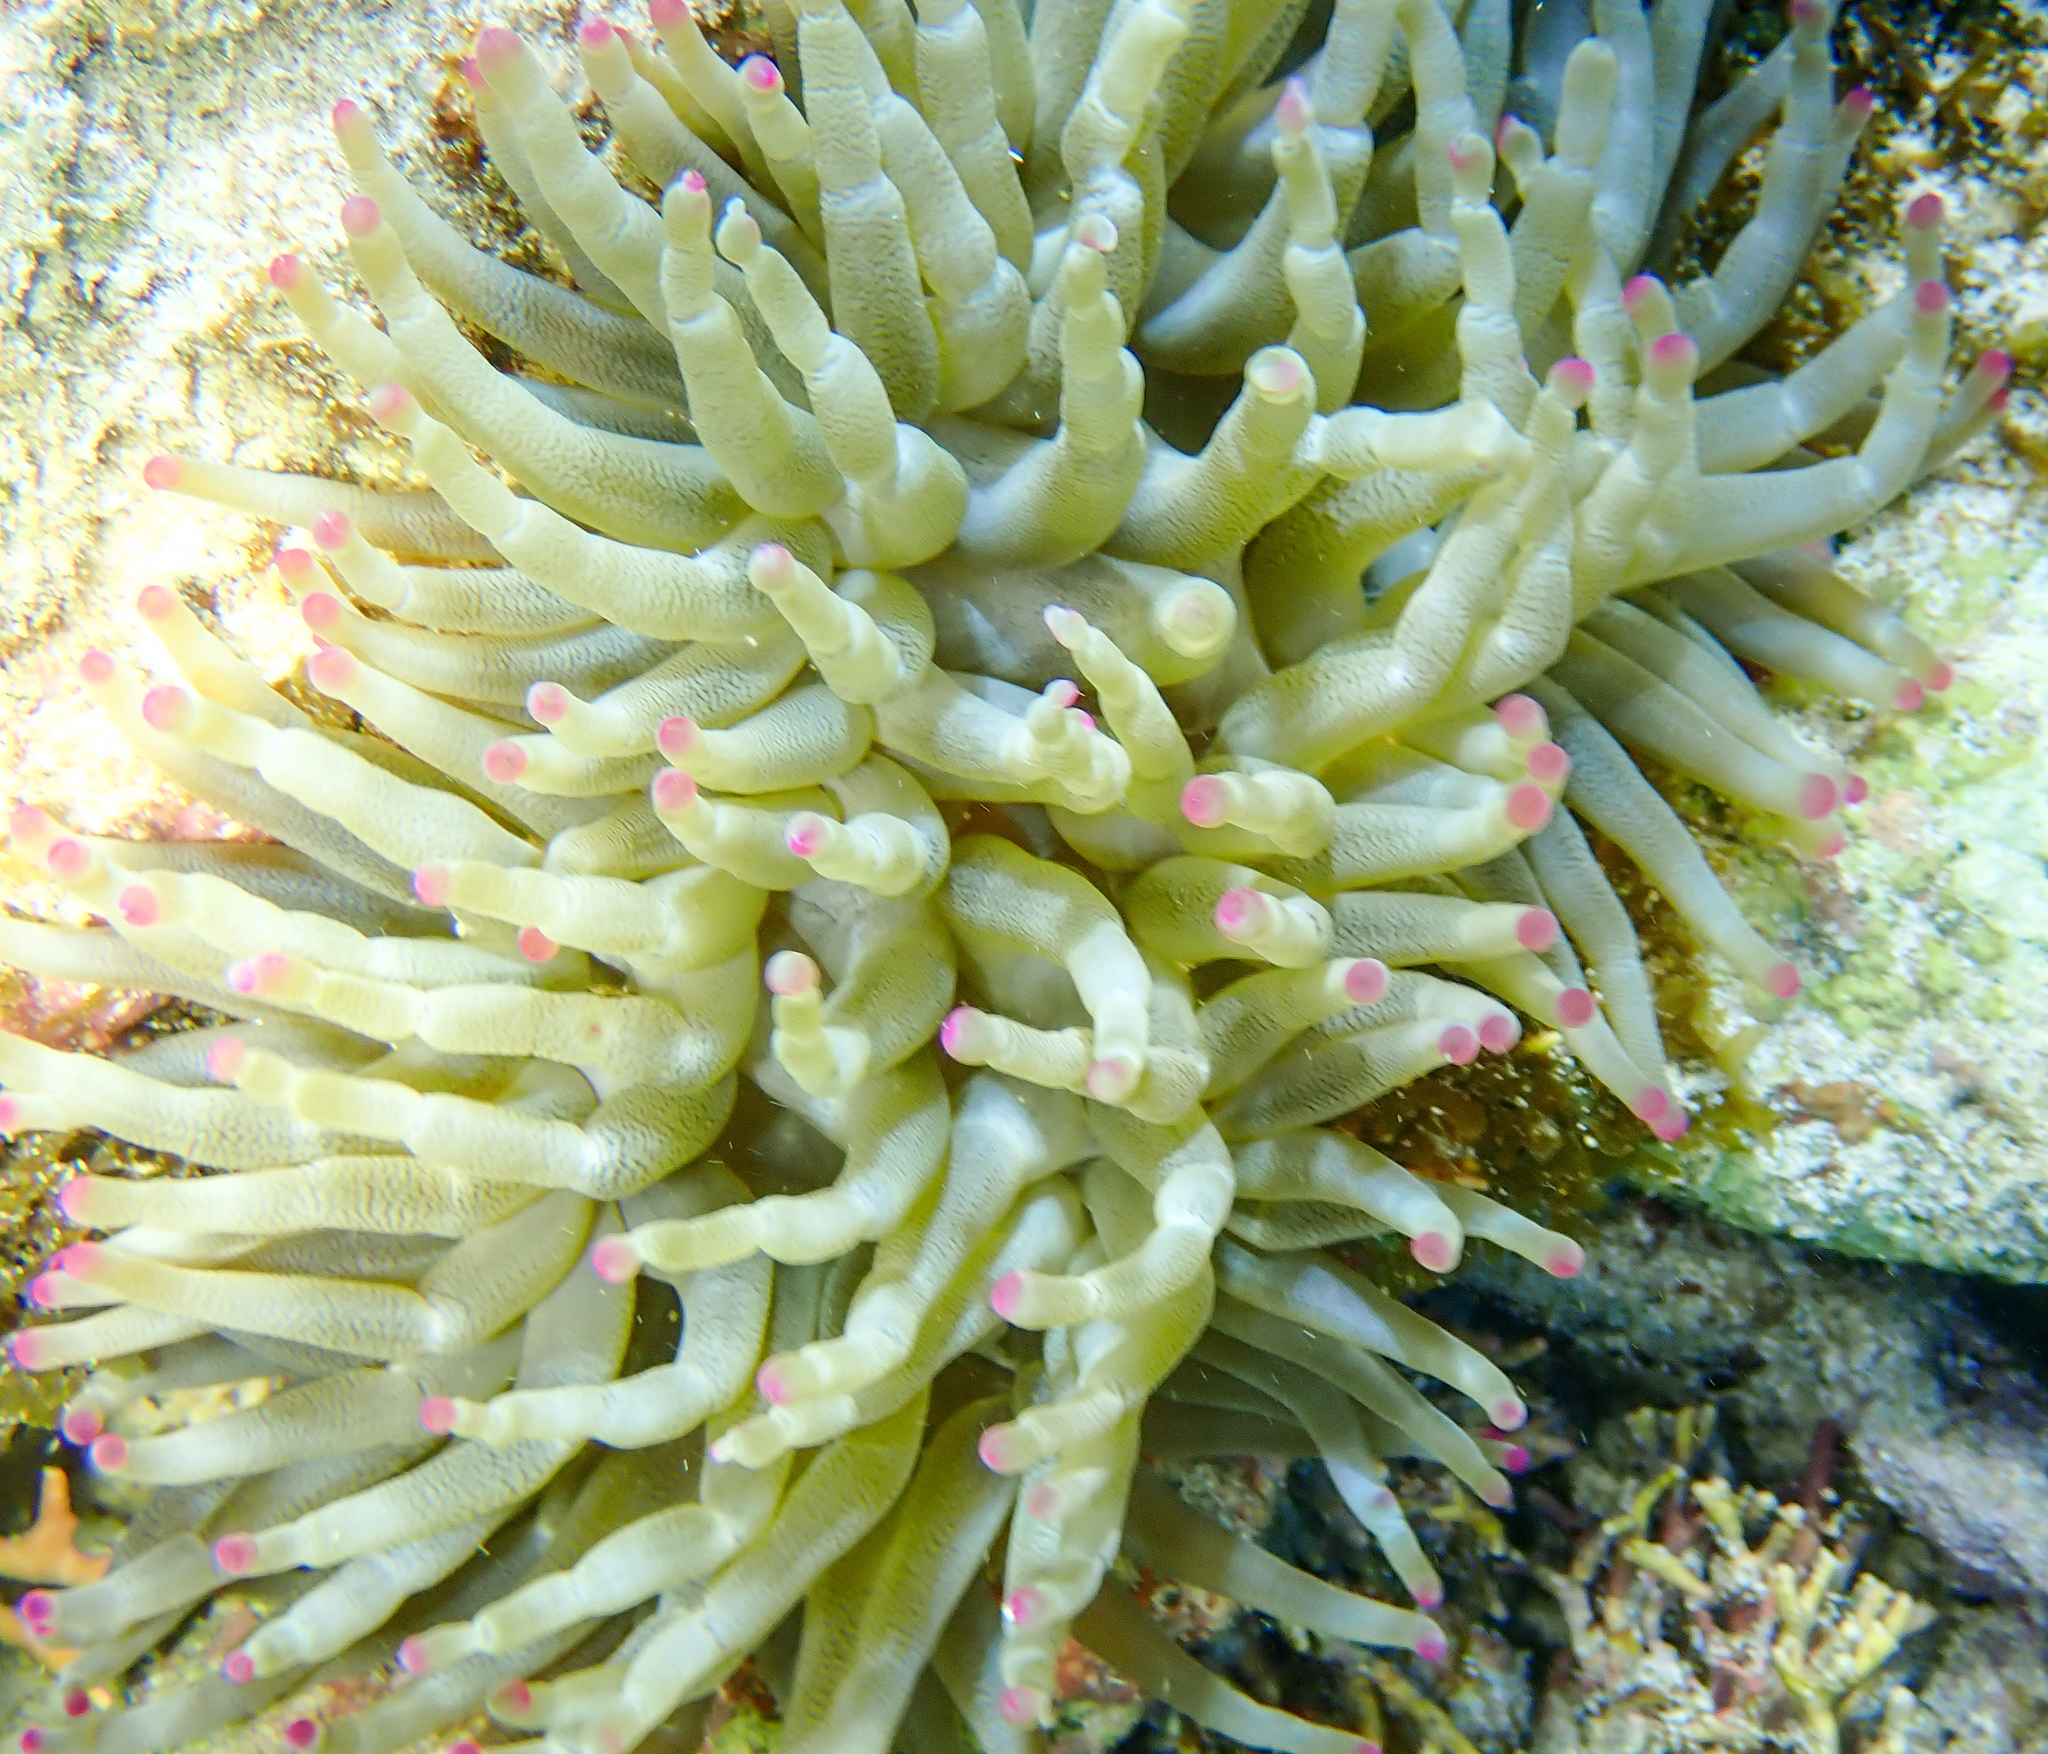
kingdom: Animalia
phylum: Cnidaria
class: Anthozoa
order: Actiniaria
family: Actiniidae
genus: Condylactis
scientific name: Condylactis gigantea
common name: Giant caribbean anemone
